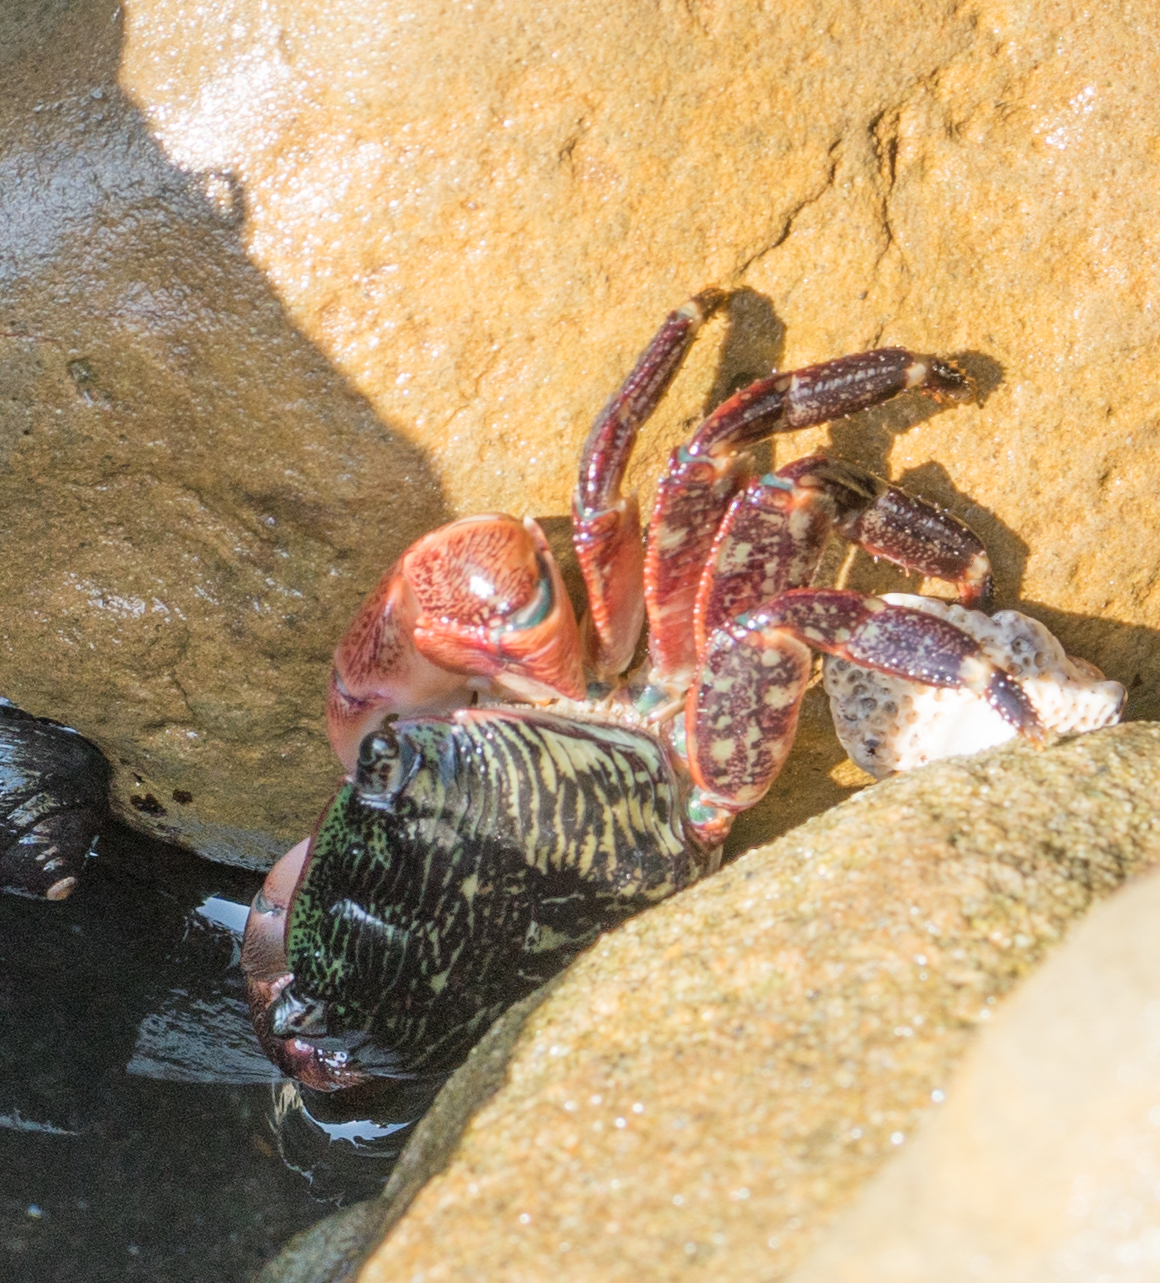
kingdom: Animalia
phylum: Arthropoda
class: Malacostraca
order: Decapoda
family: Grapsidae
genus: Pachygrapsus
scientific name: Pachygrapsus crassipes
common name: Striped shore crab
